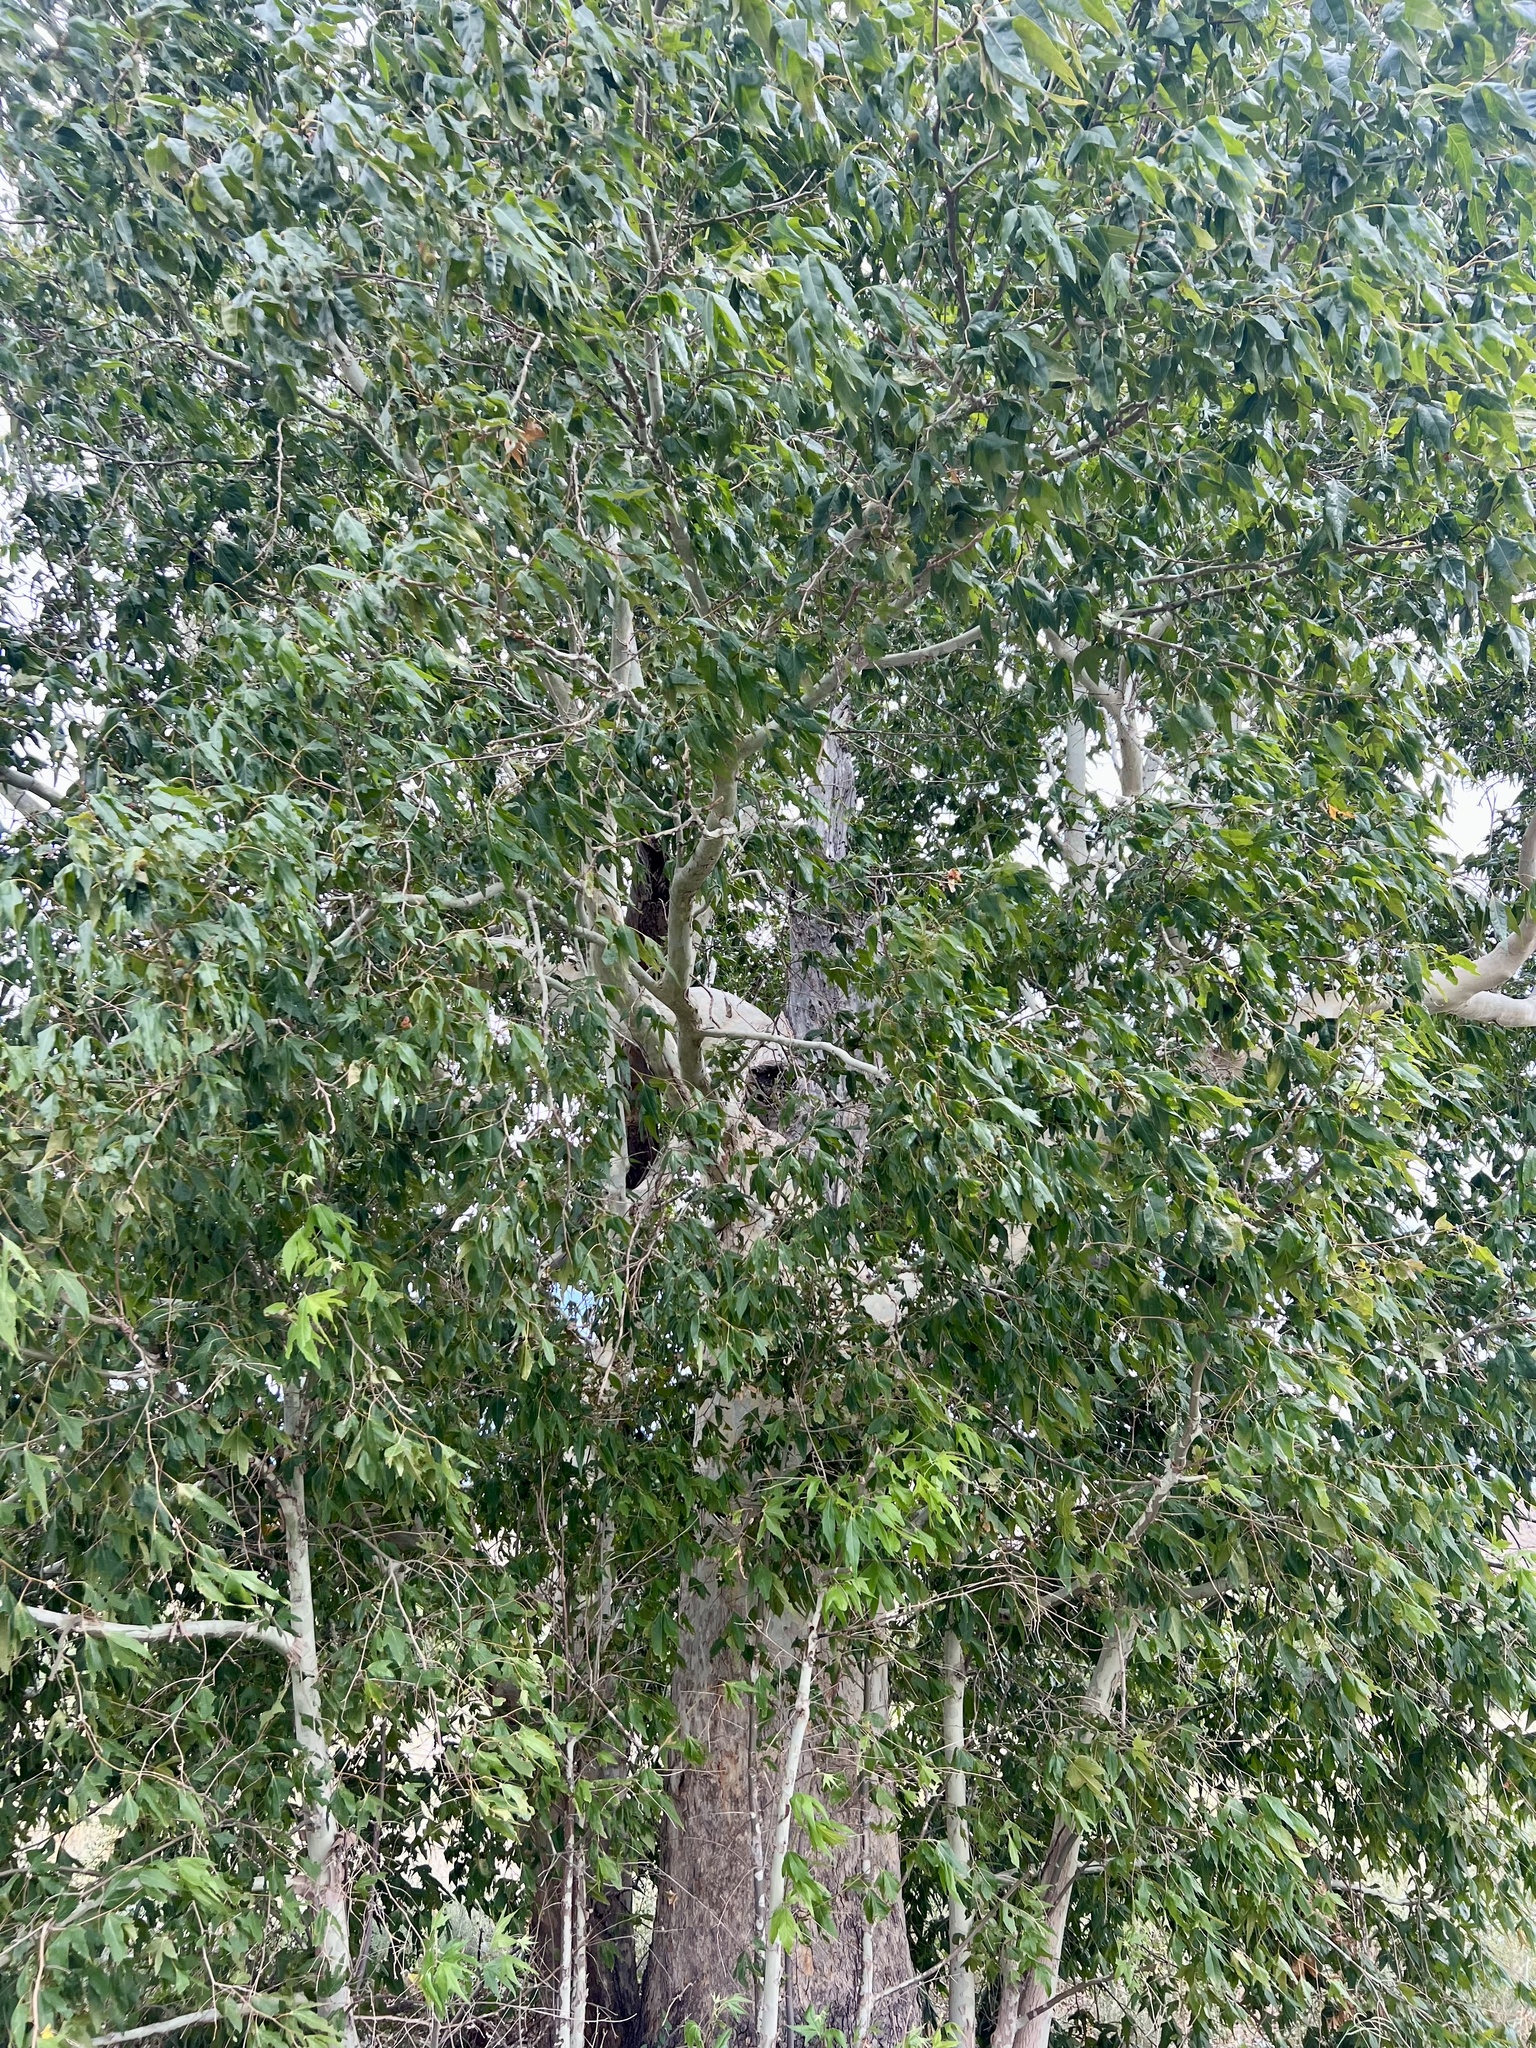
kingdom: Plantae
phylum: Tracheophyta
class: Magnoliopsida
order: Proteales
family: Platanaceae
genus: Platanus
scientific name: Platanus wrightii
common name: Arizona sycamore
